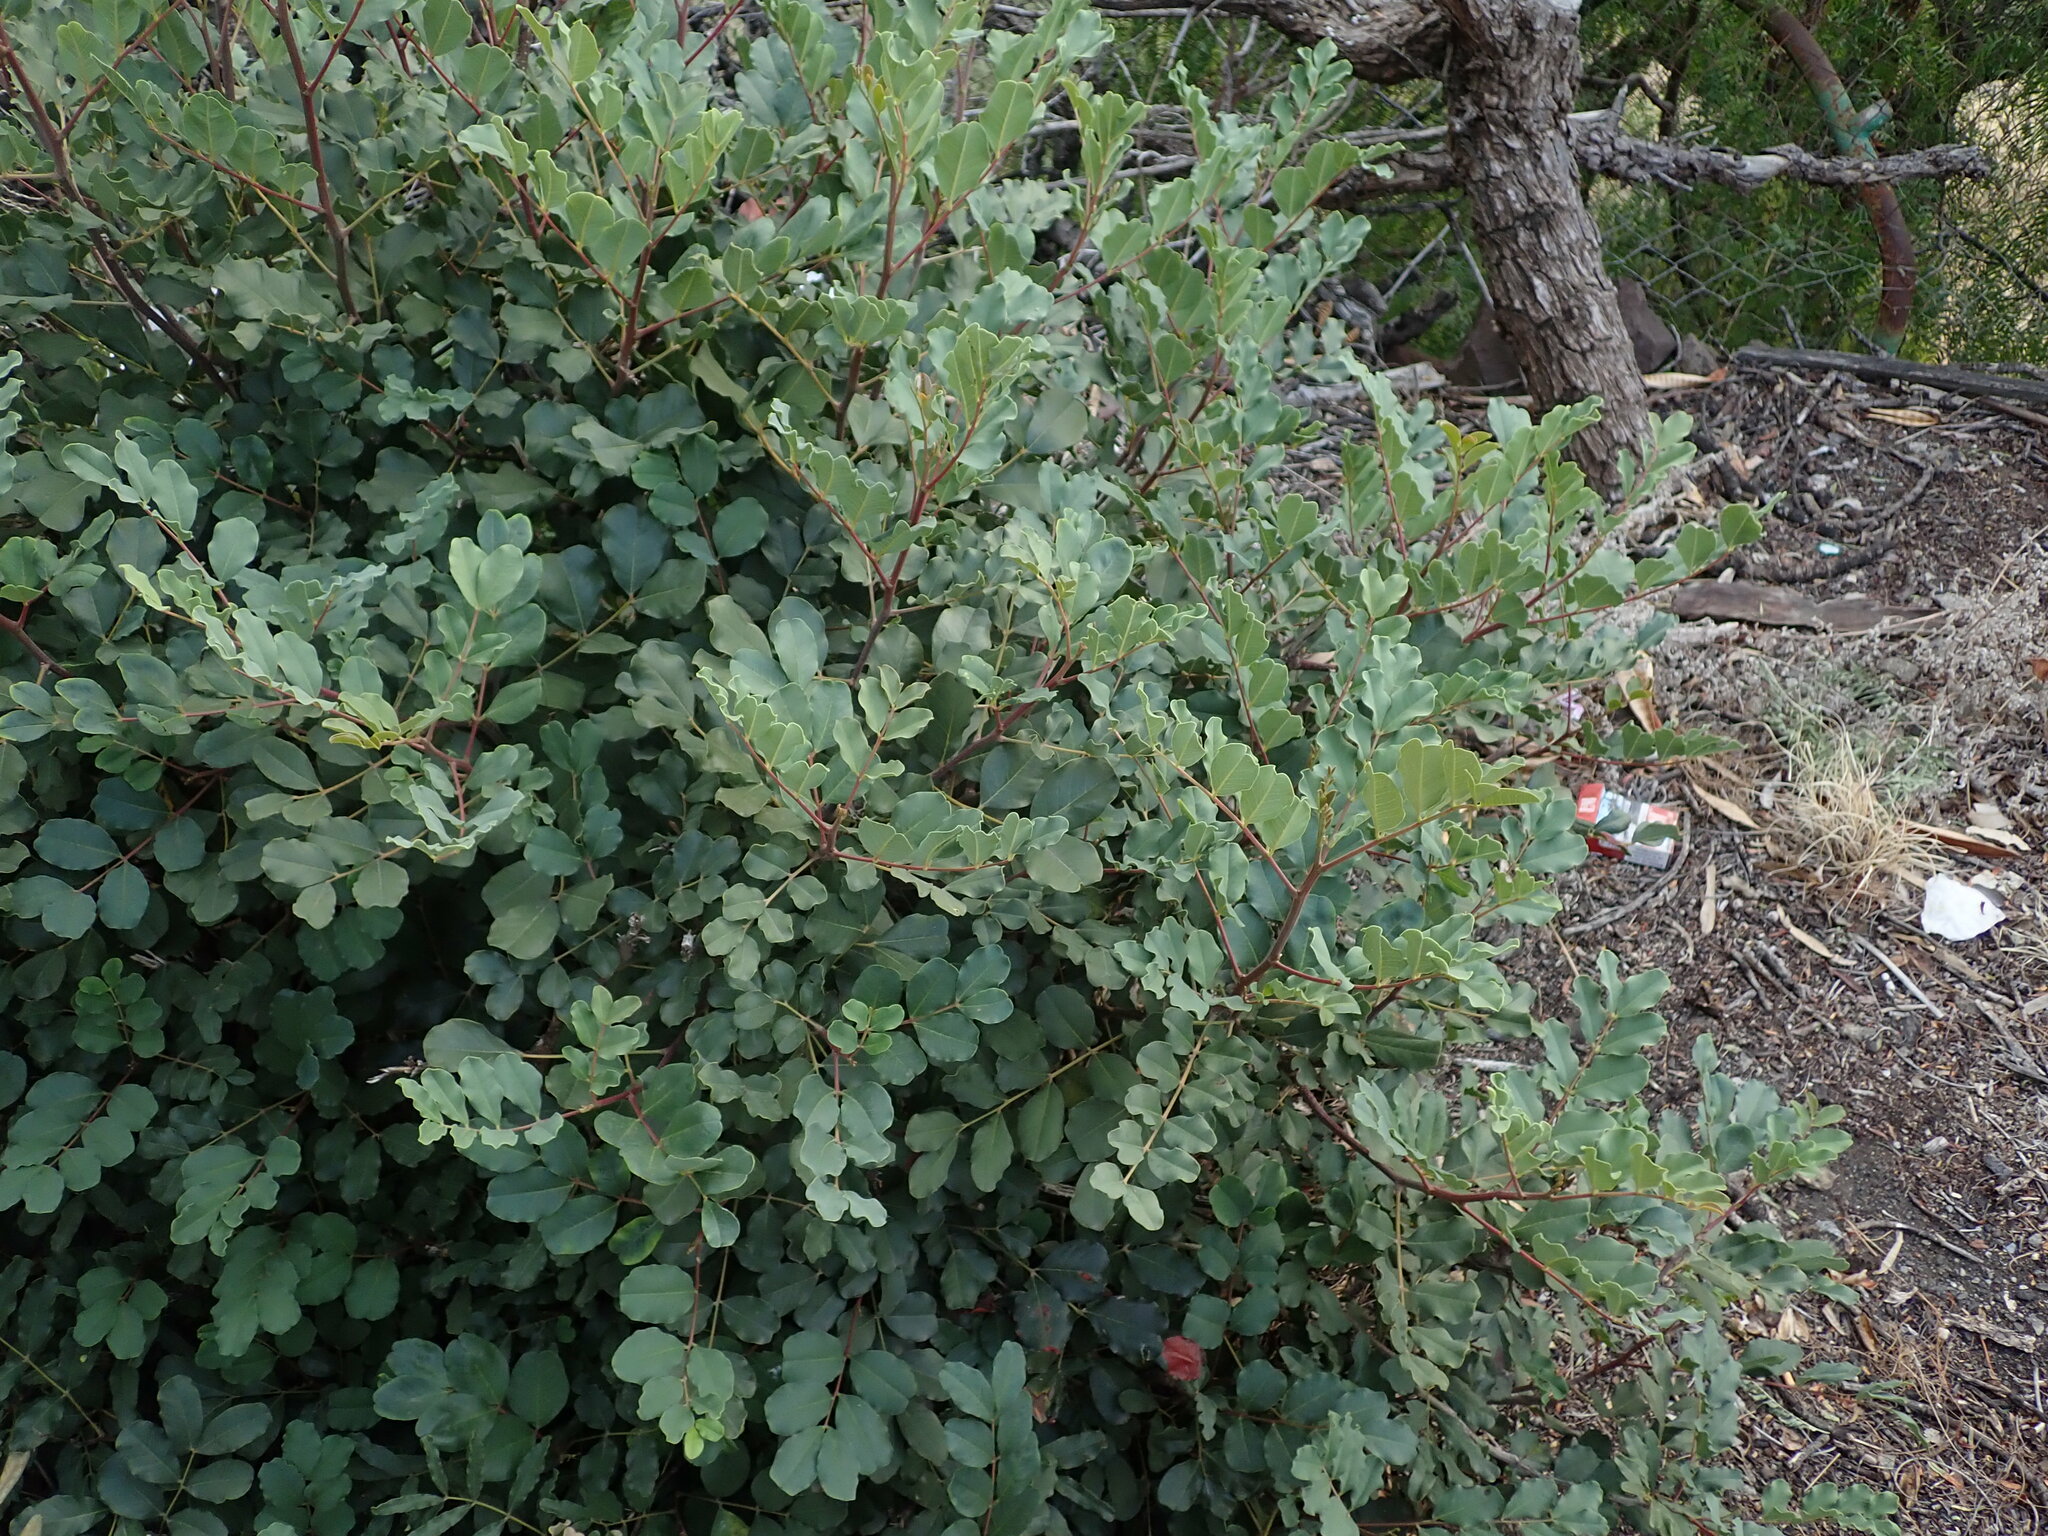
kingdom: Plantae
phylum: Tracheophyta
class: Magnoliopsida
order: Fabales
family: Fabaceae
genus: Ceratonia
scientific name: Ceratonia siliqua
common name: Carob
